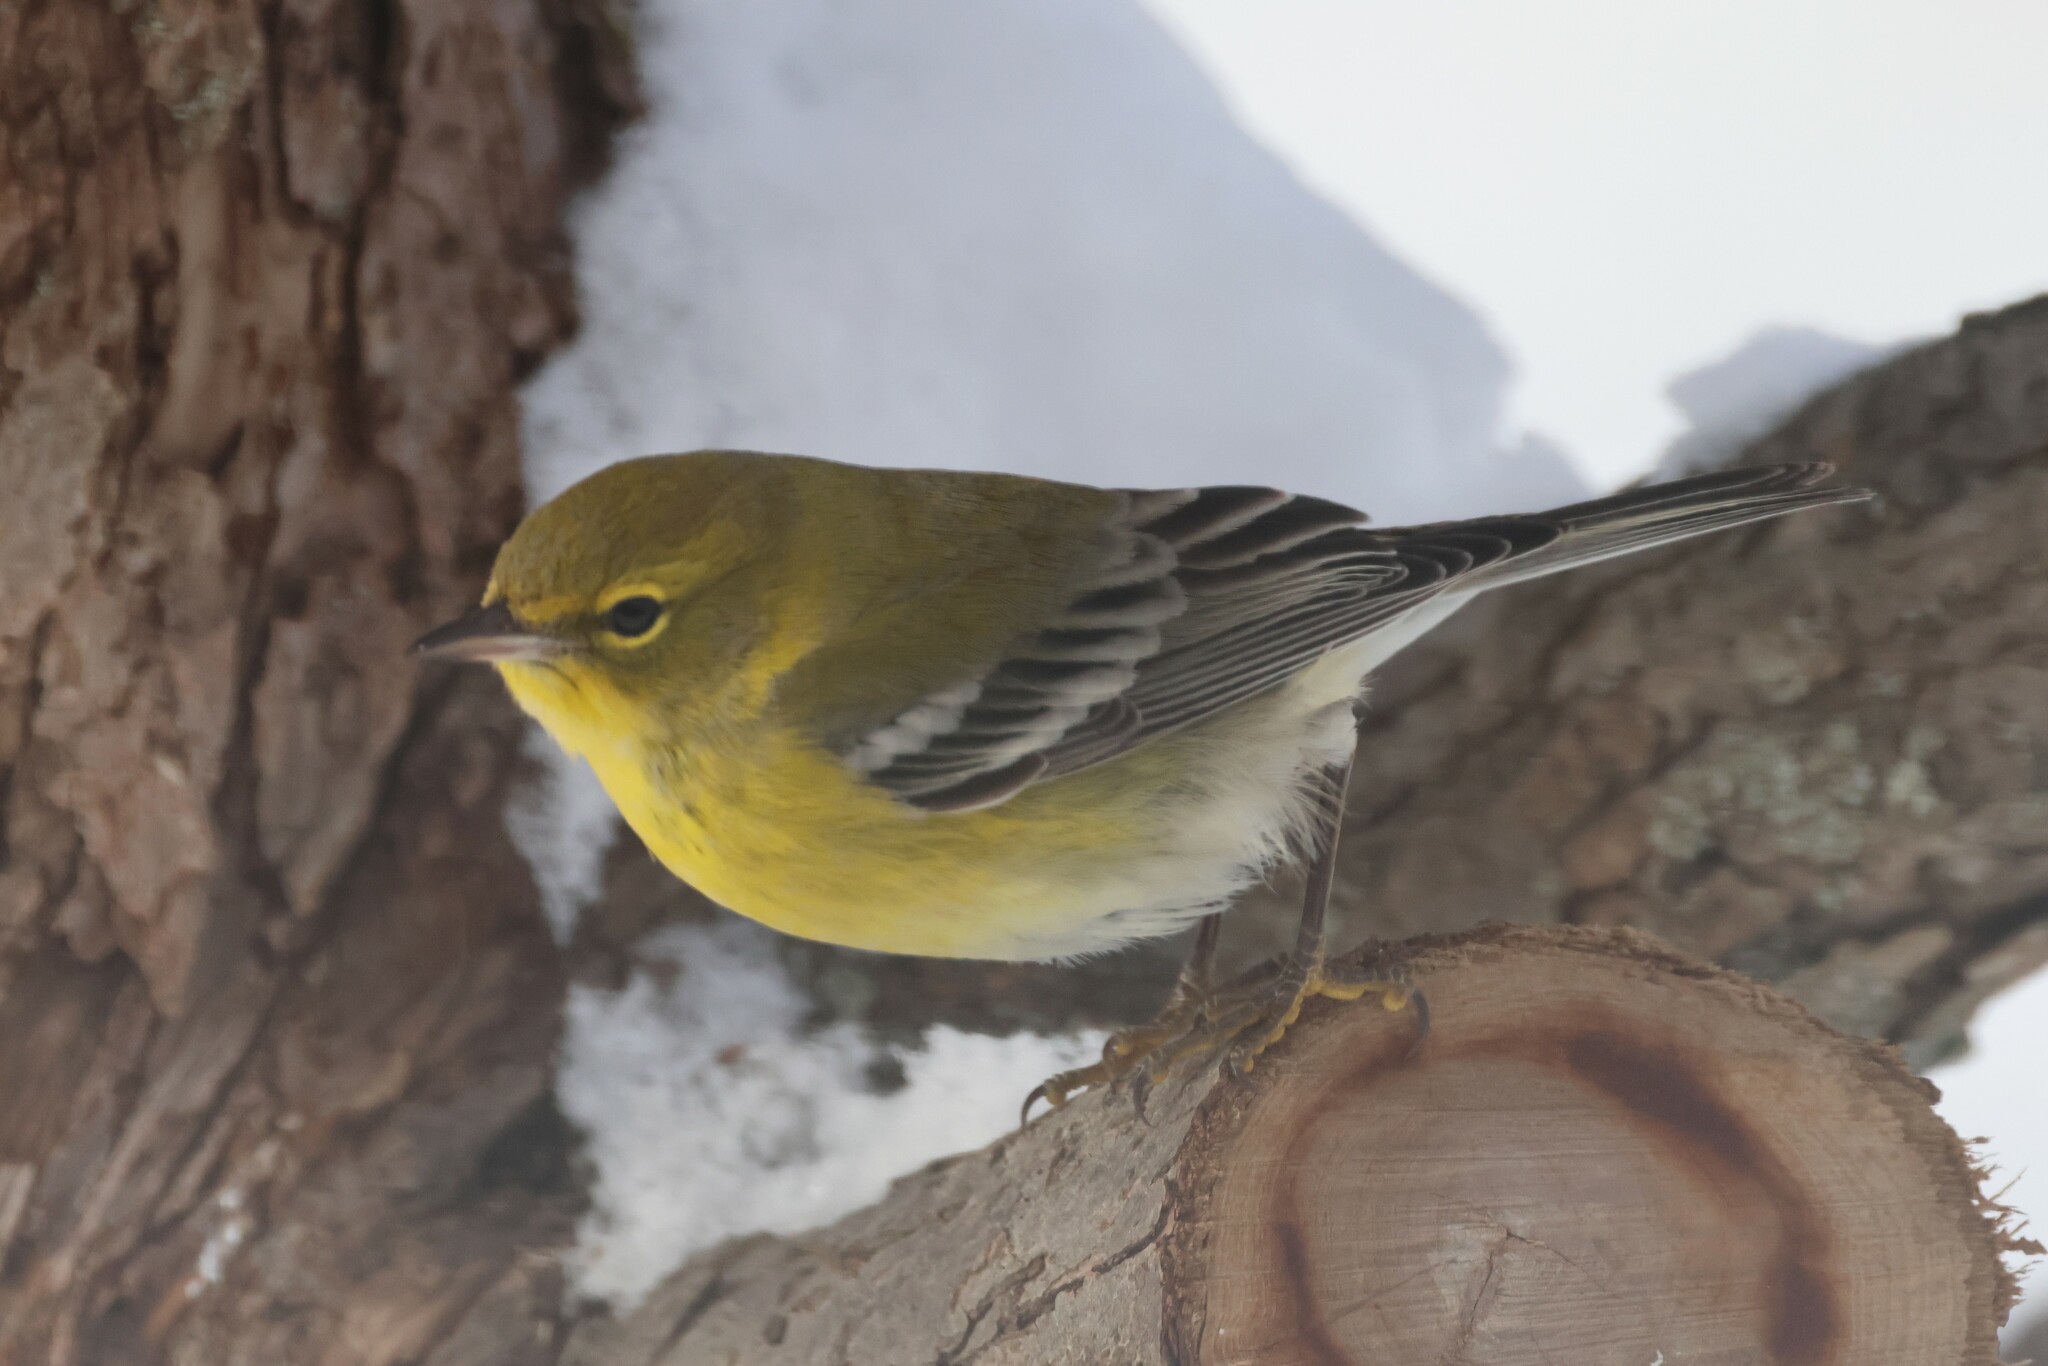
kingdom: Animalia
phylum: Chordata
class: Aves
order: Passeriformes
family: Parulidae
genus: Setophaga
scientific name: Setophaga pinus
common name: Pine warbler
